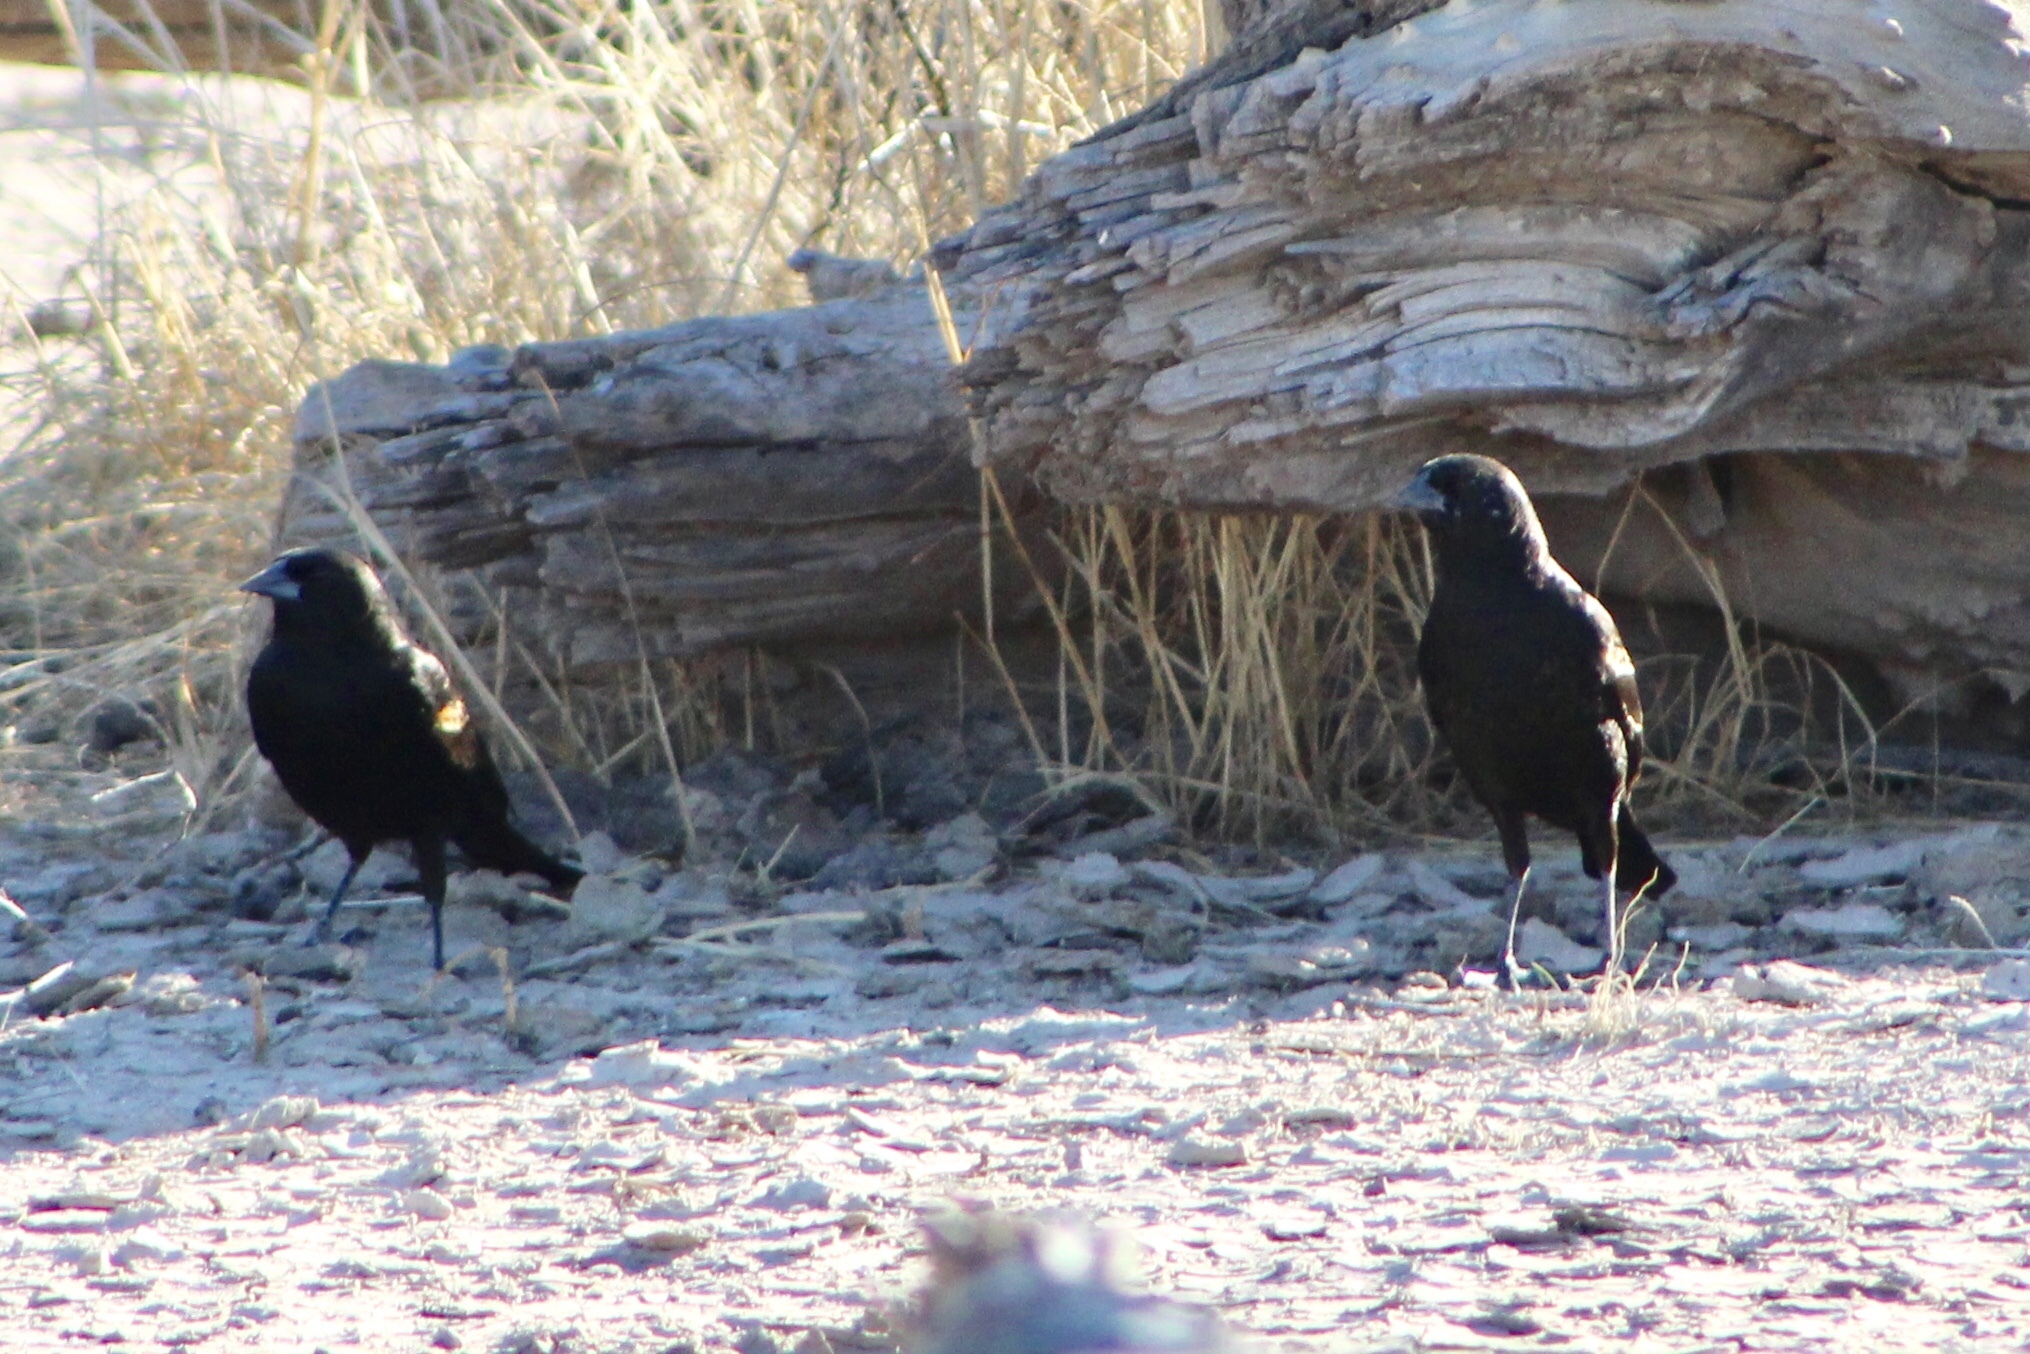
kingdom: Animalia
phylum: Chordata
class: Aves
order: Passeriformes
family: Icteridae
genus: Agelaius
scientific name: Agelaius phoeniceus
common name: Red-winged blackbird
